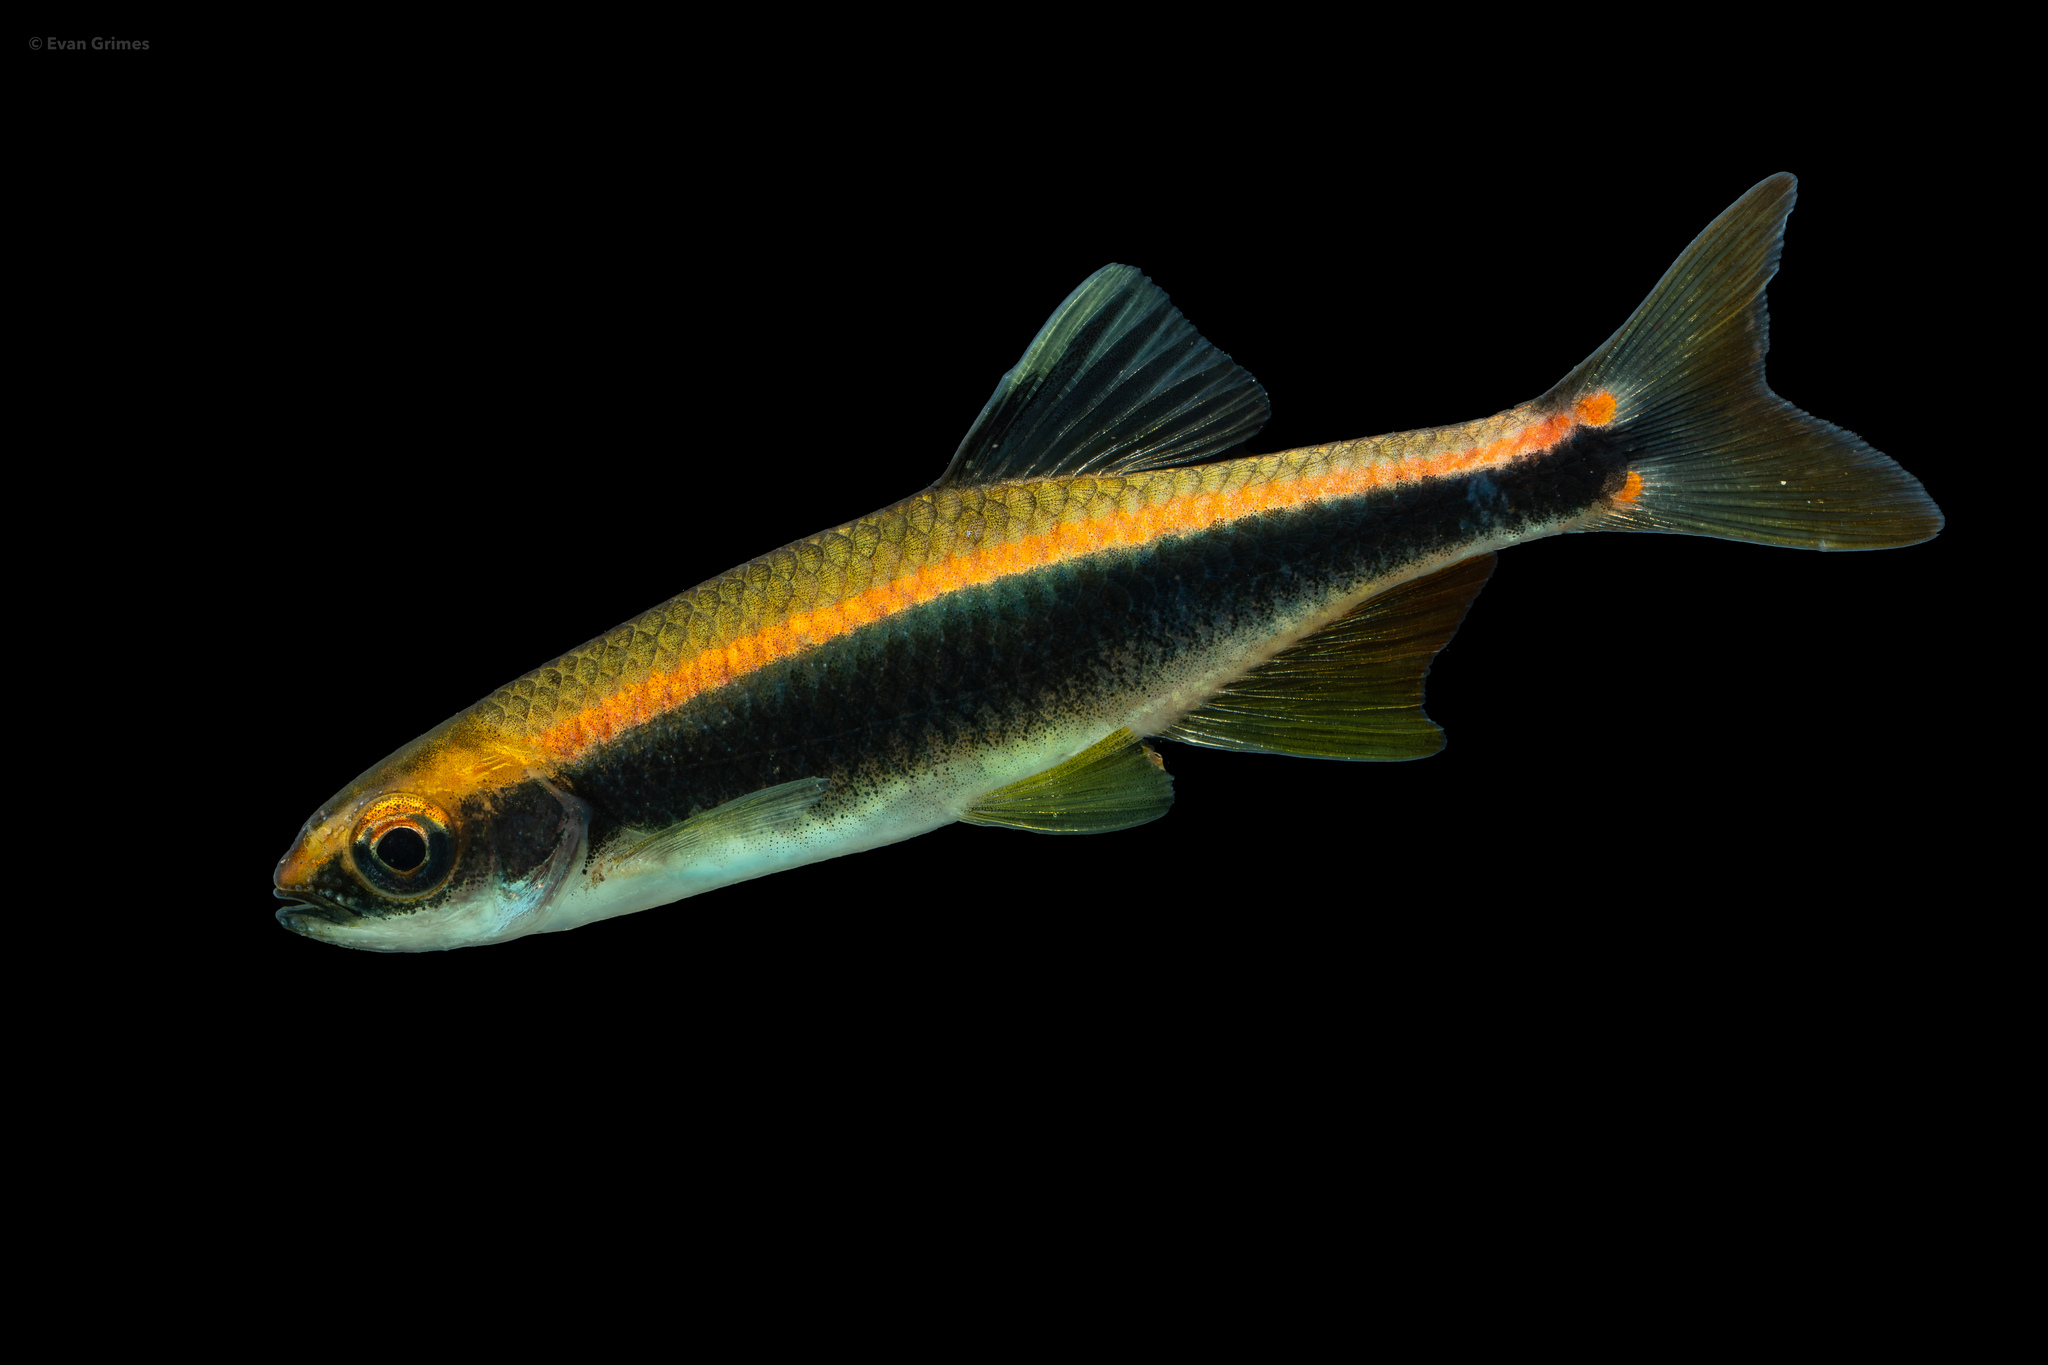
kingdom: Animalia
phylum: Chordata
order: Cypriniformes
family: Cyprinidae
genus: Pteronotropis
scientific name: Pteronotropis hypselopterus
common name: Sailfin shiner
